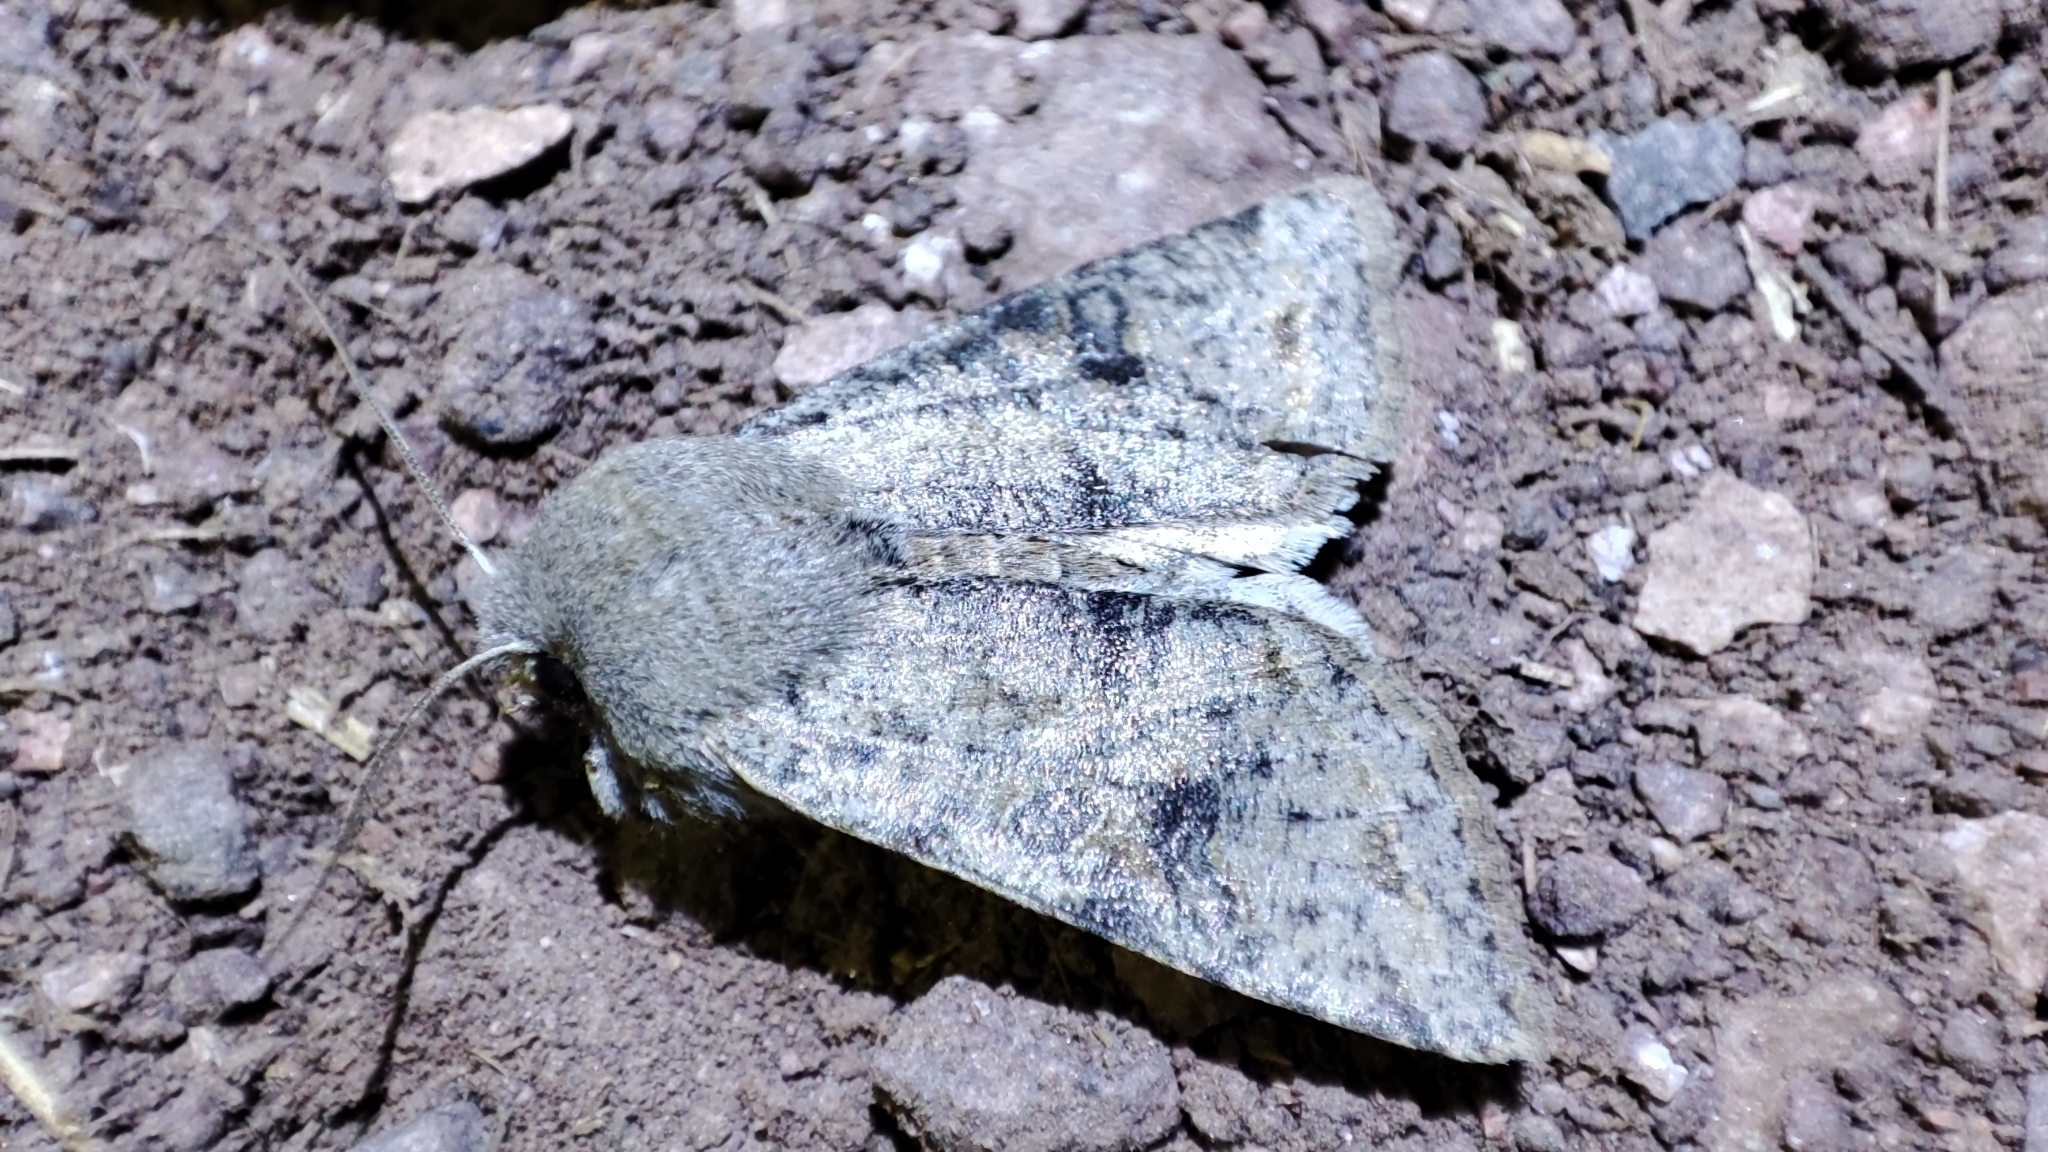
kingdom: Animalia
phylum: Arthropoda
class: Insecta
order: Lepidoptera
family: Noctuidae
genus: Orthosia
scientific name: Orthosia incerta
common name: Clouded drab
